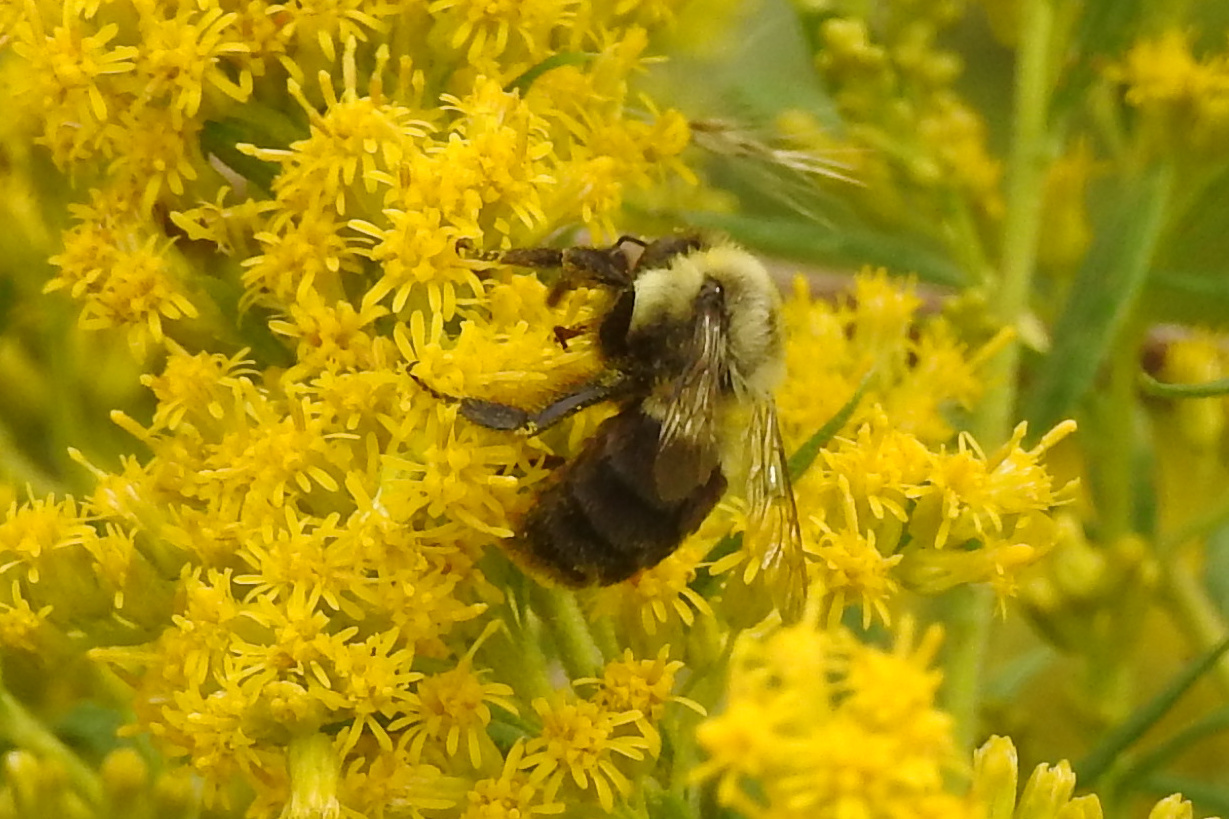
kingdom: Animalia
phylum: Arthropoda
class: Insecta
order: Hymenoptera
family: Apidae
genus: Bombus
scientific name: Bombus impatiens
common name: Common eastern bumble bee
